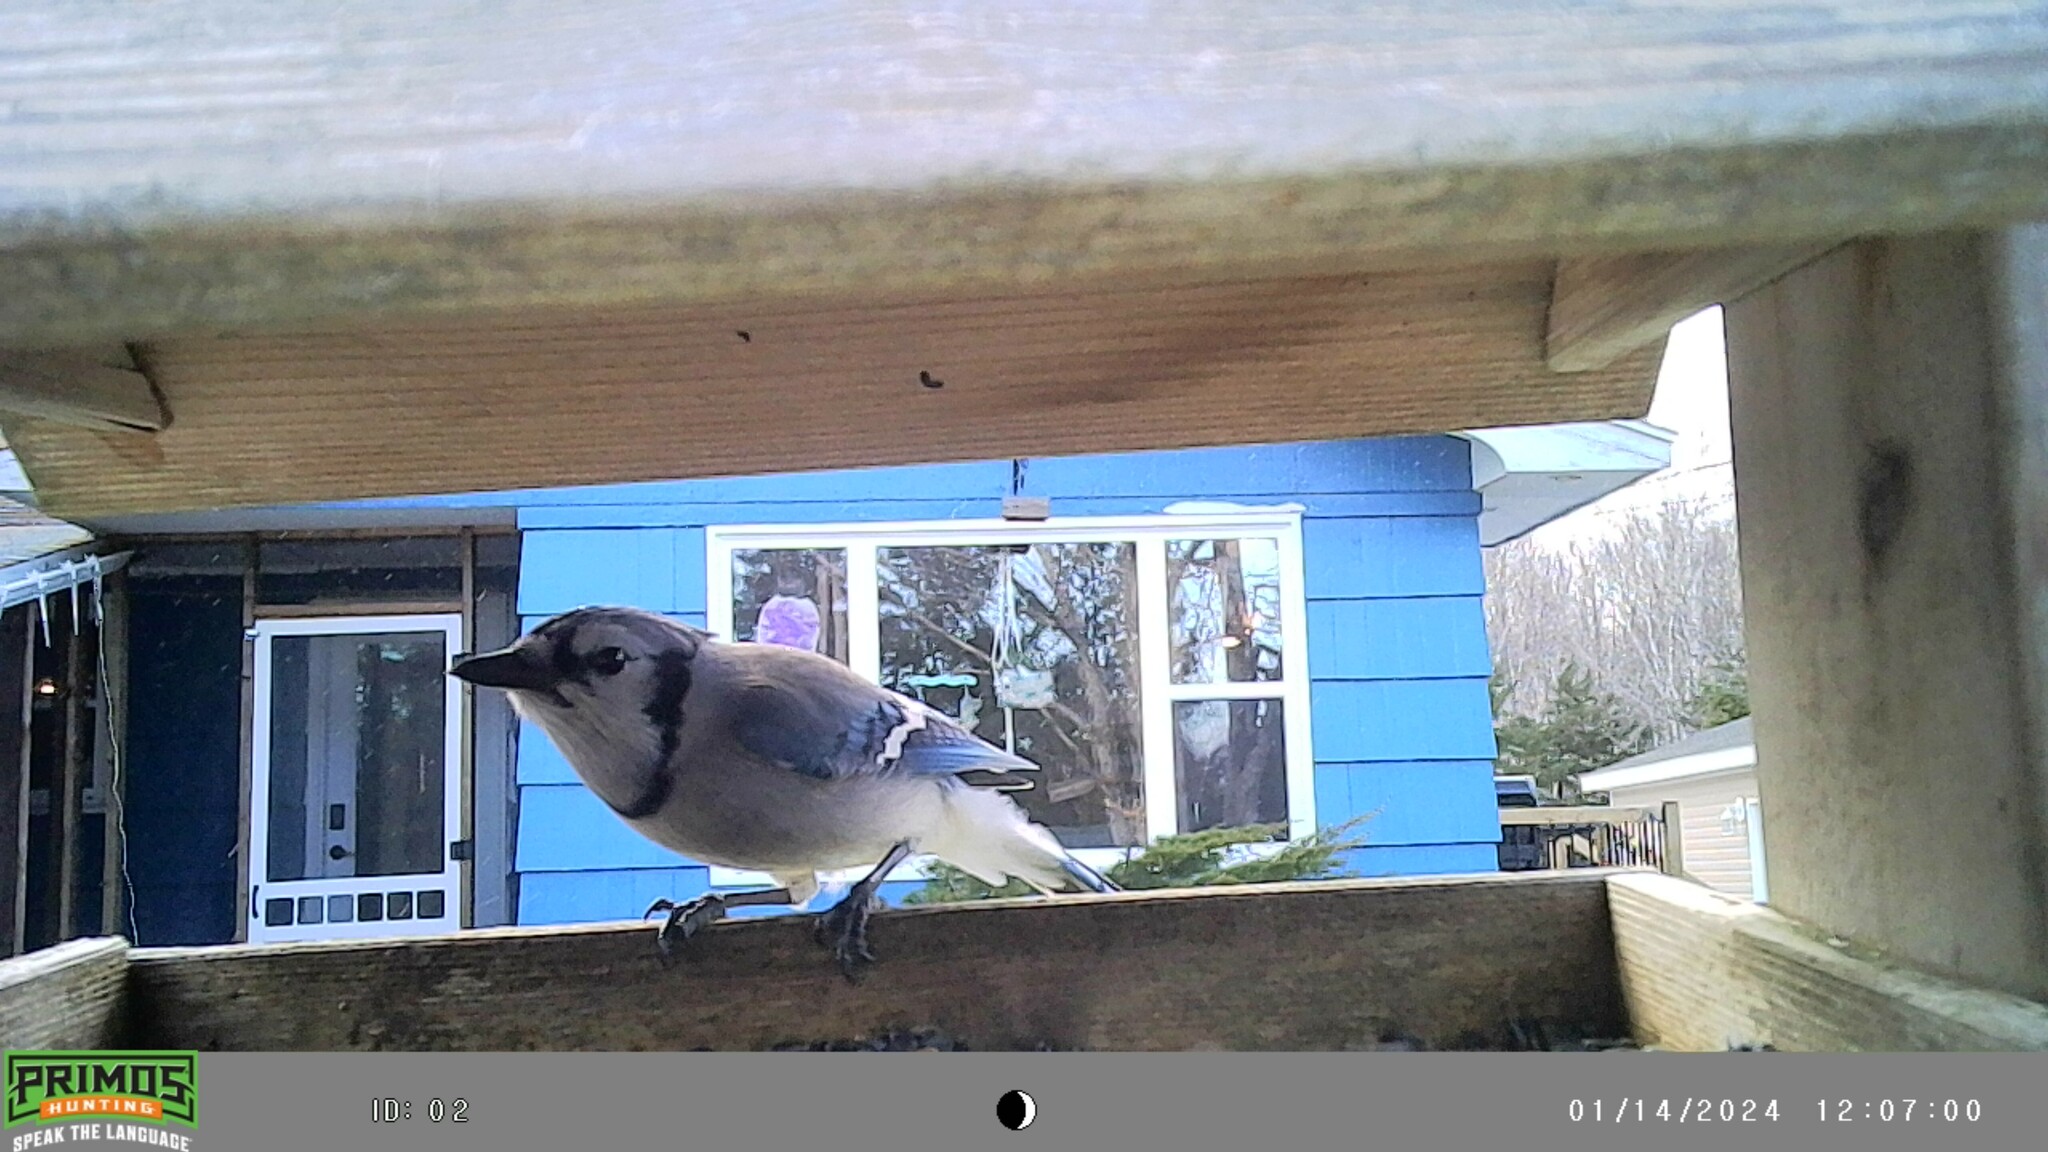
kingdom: Animalia
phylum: Chordata
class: Aves
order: Passeriformes
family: Corvidae
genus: Cyanocitta
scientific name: Cyanocitta cristata
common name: Blue jay
